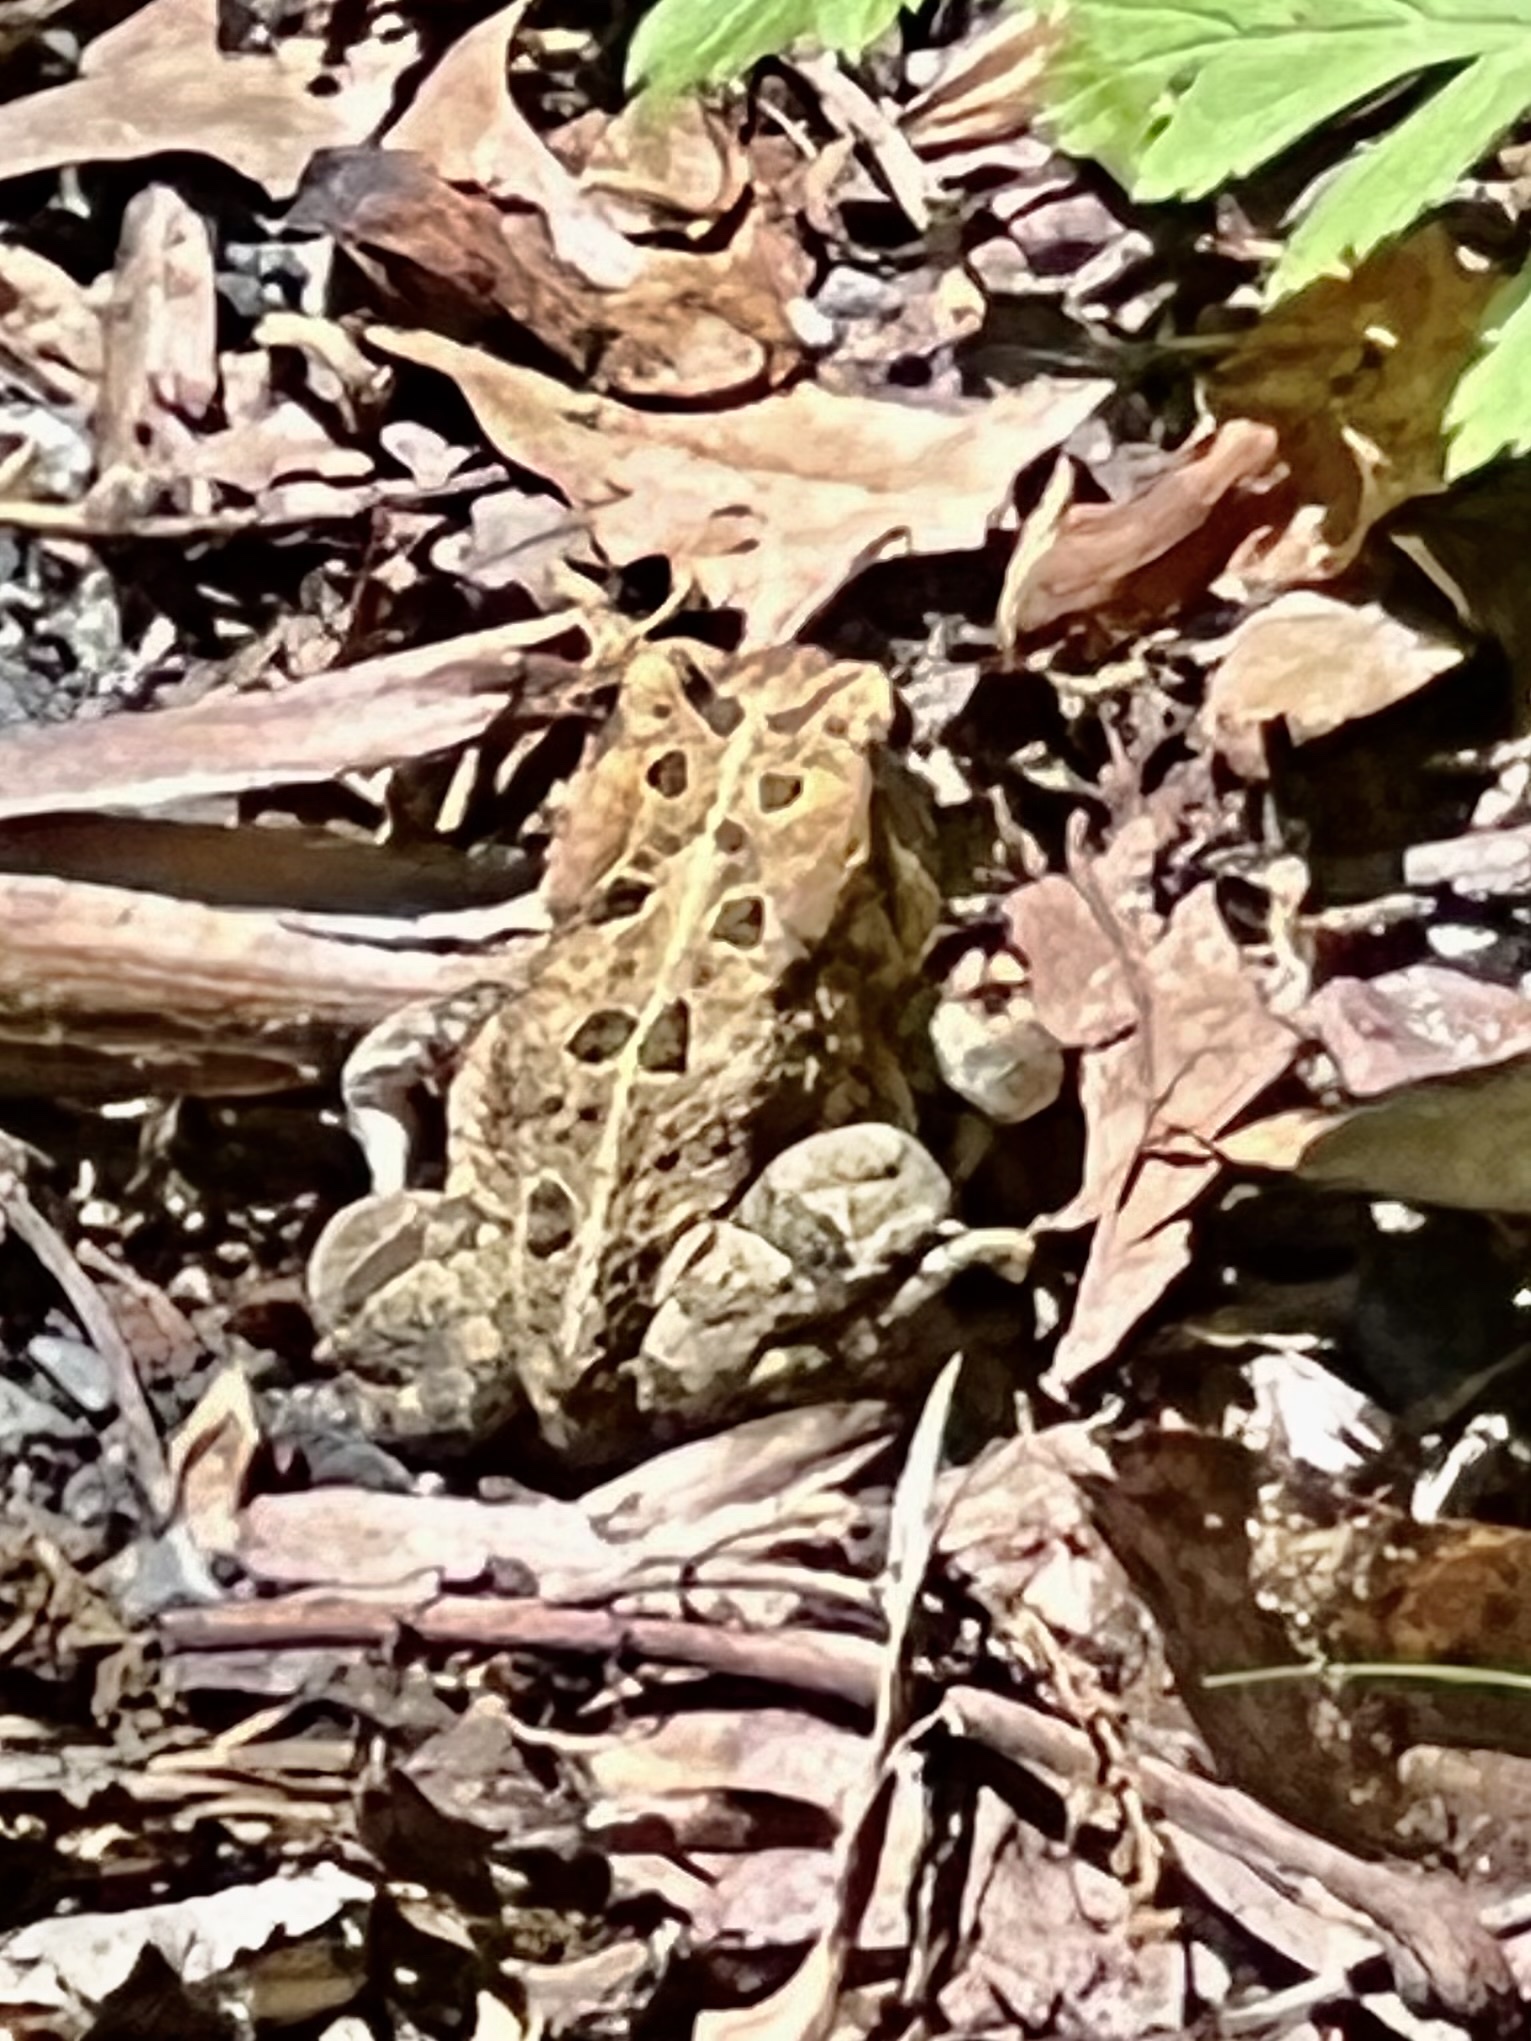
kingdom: Animalia
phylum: Chordata
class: Amphibia
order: Anura
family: Bufonidae
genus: Anaxyrus
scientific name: Anaxyrus fowleri
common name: Fowler's toad
